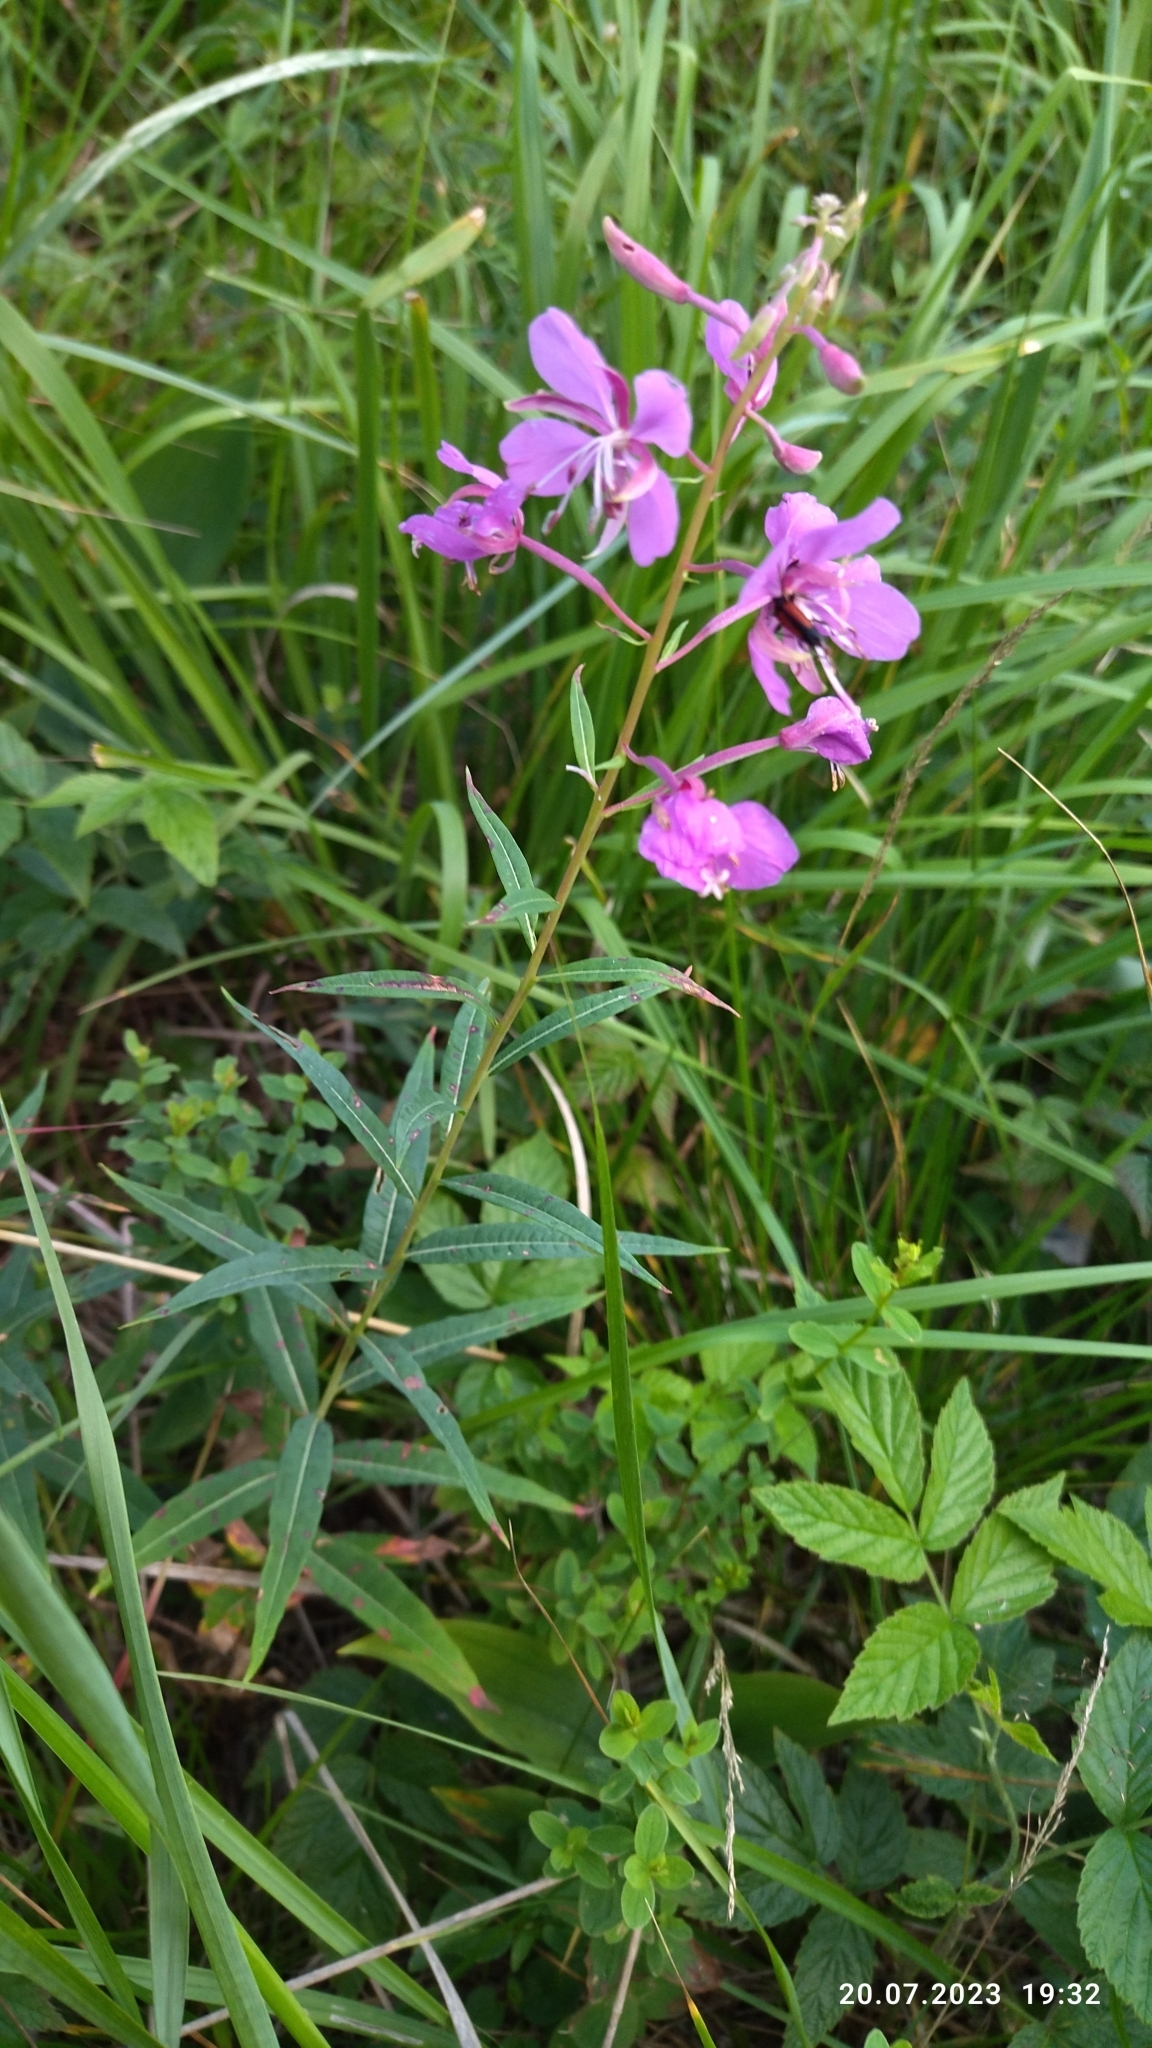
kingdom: Plantae
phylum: Tracheophyta
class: Magnoliopsida
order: Myrtales
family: Onagraceae
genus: Chamaenerion
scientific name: Chamaenerion angustifolium
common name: Fireweed
